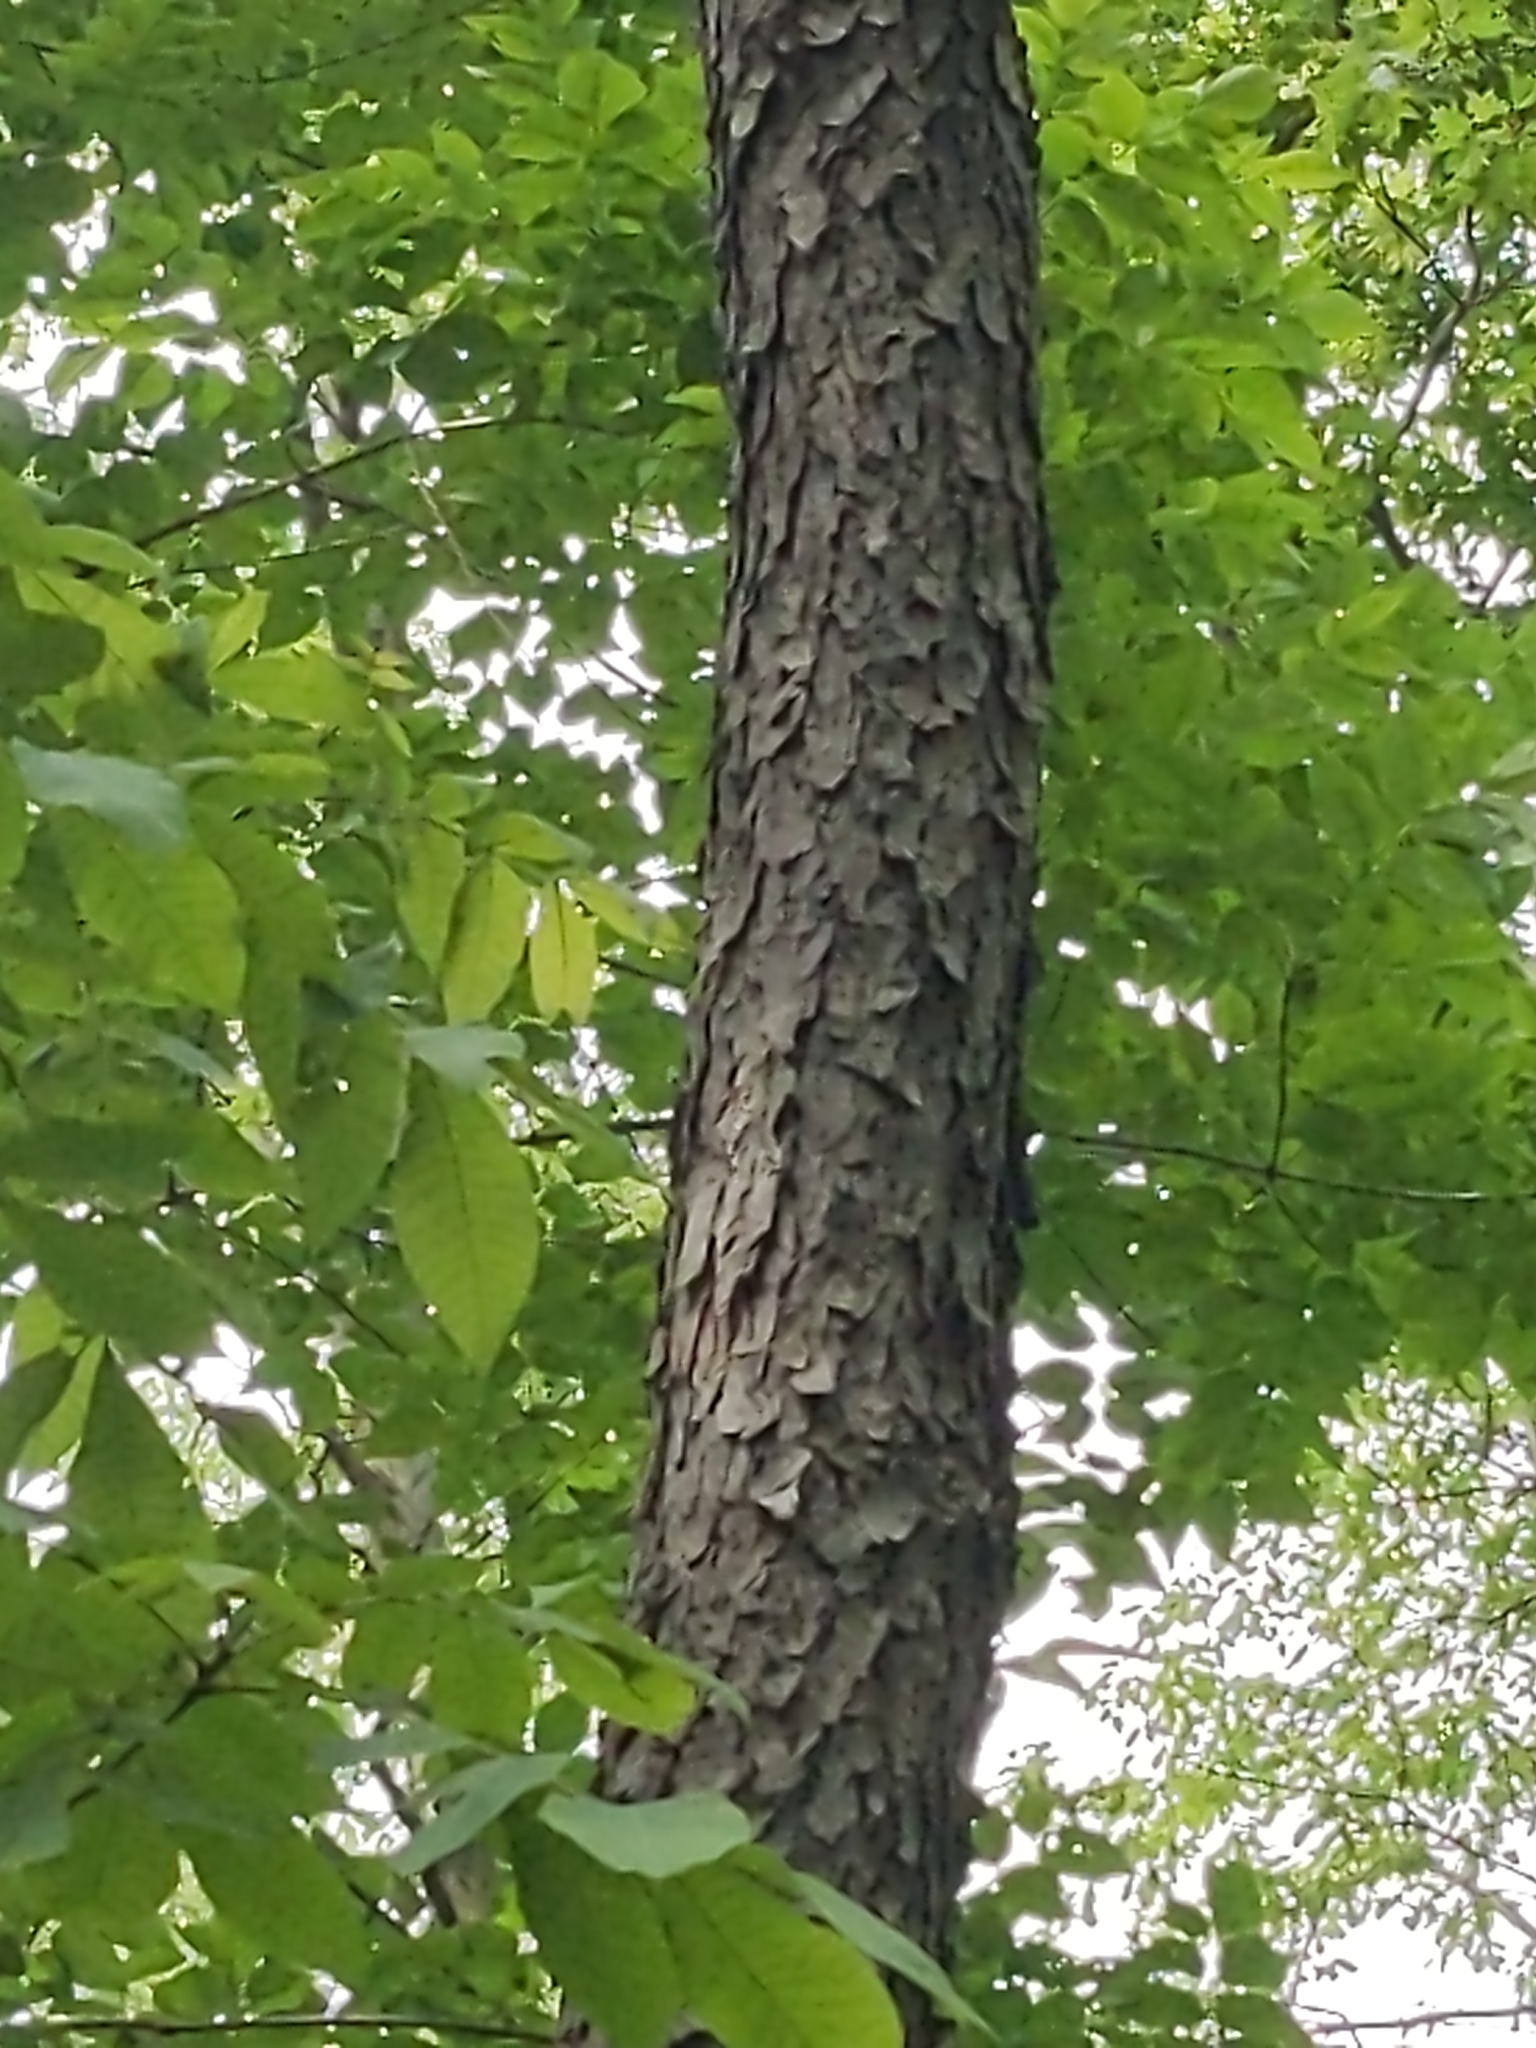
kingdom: Plantae
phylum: Tracheophyta
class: Magnoliopsida
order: Rosales
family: Rosaceae
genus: Prunus
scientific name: Prunus serotina
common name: Black cherry
